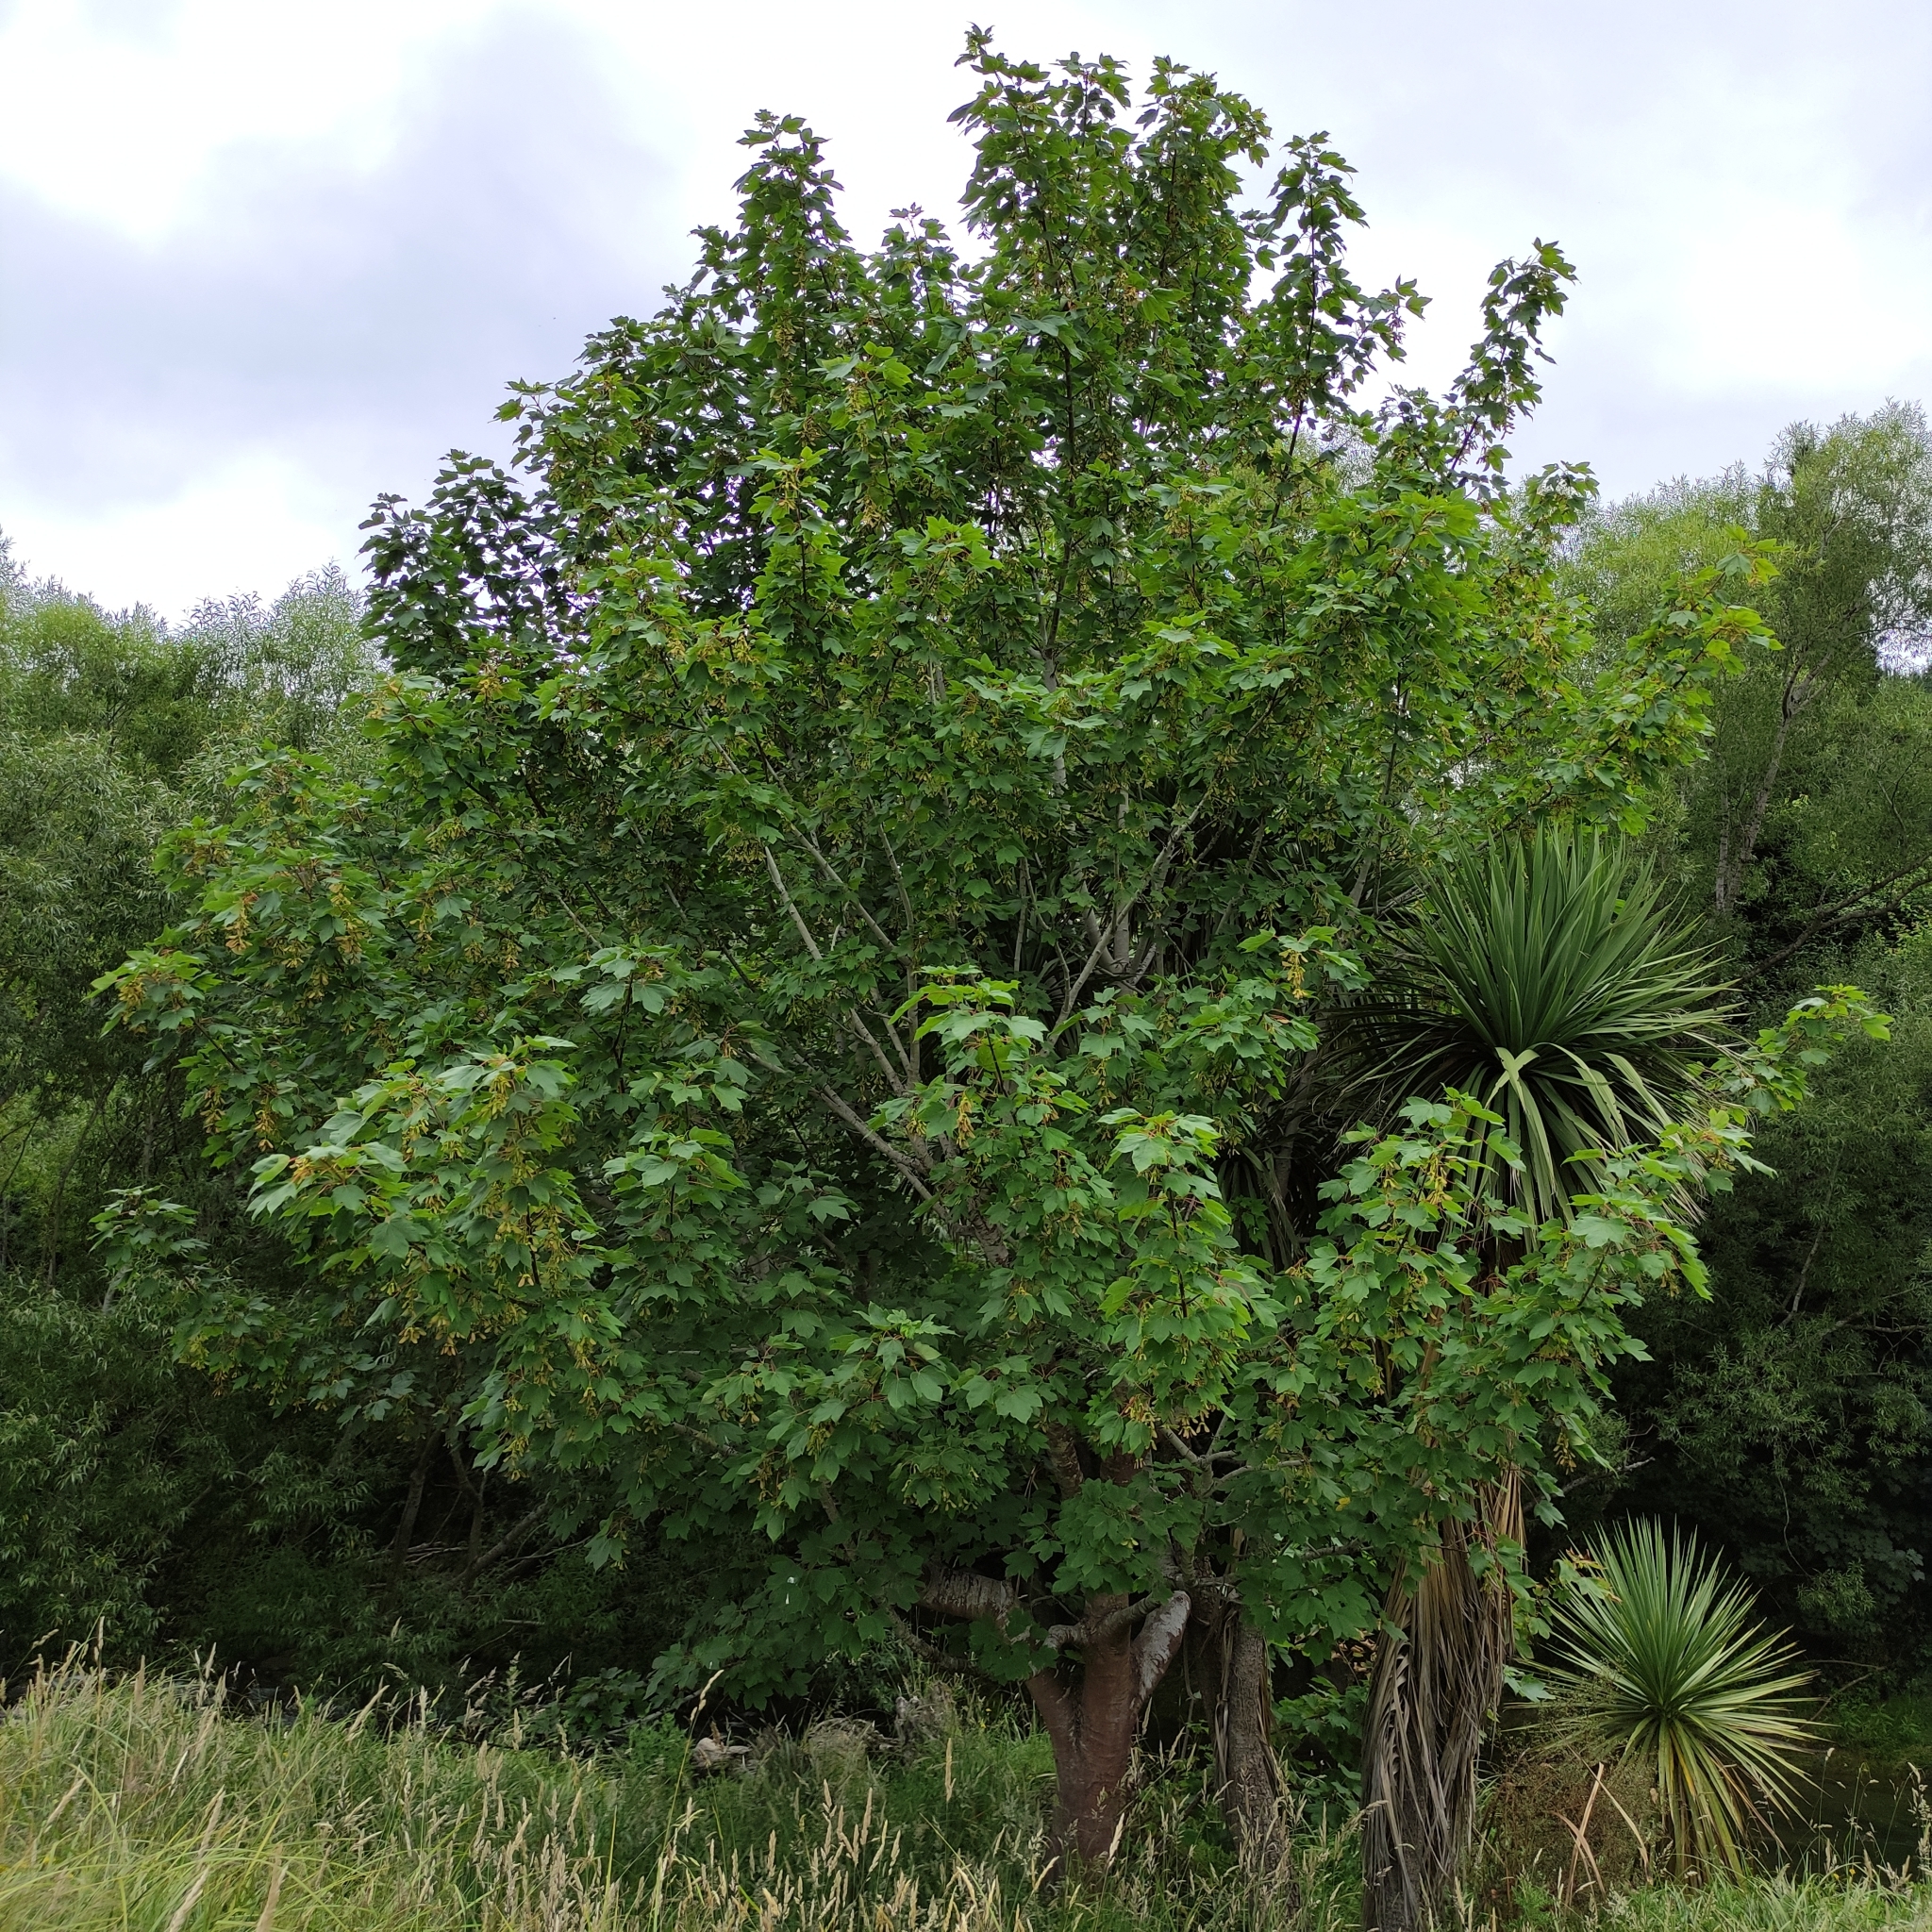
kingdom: Plantae
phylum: Tracheophyta
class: Magnoliopsida
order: Sapindales
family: Sapindaceae
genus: Acer
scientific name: Acer pseudoplatanus
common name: Sycamore
